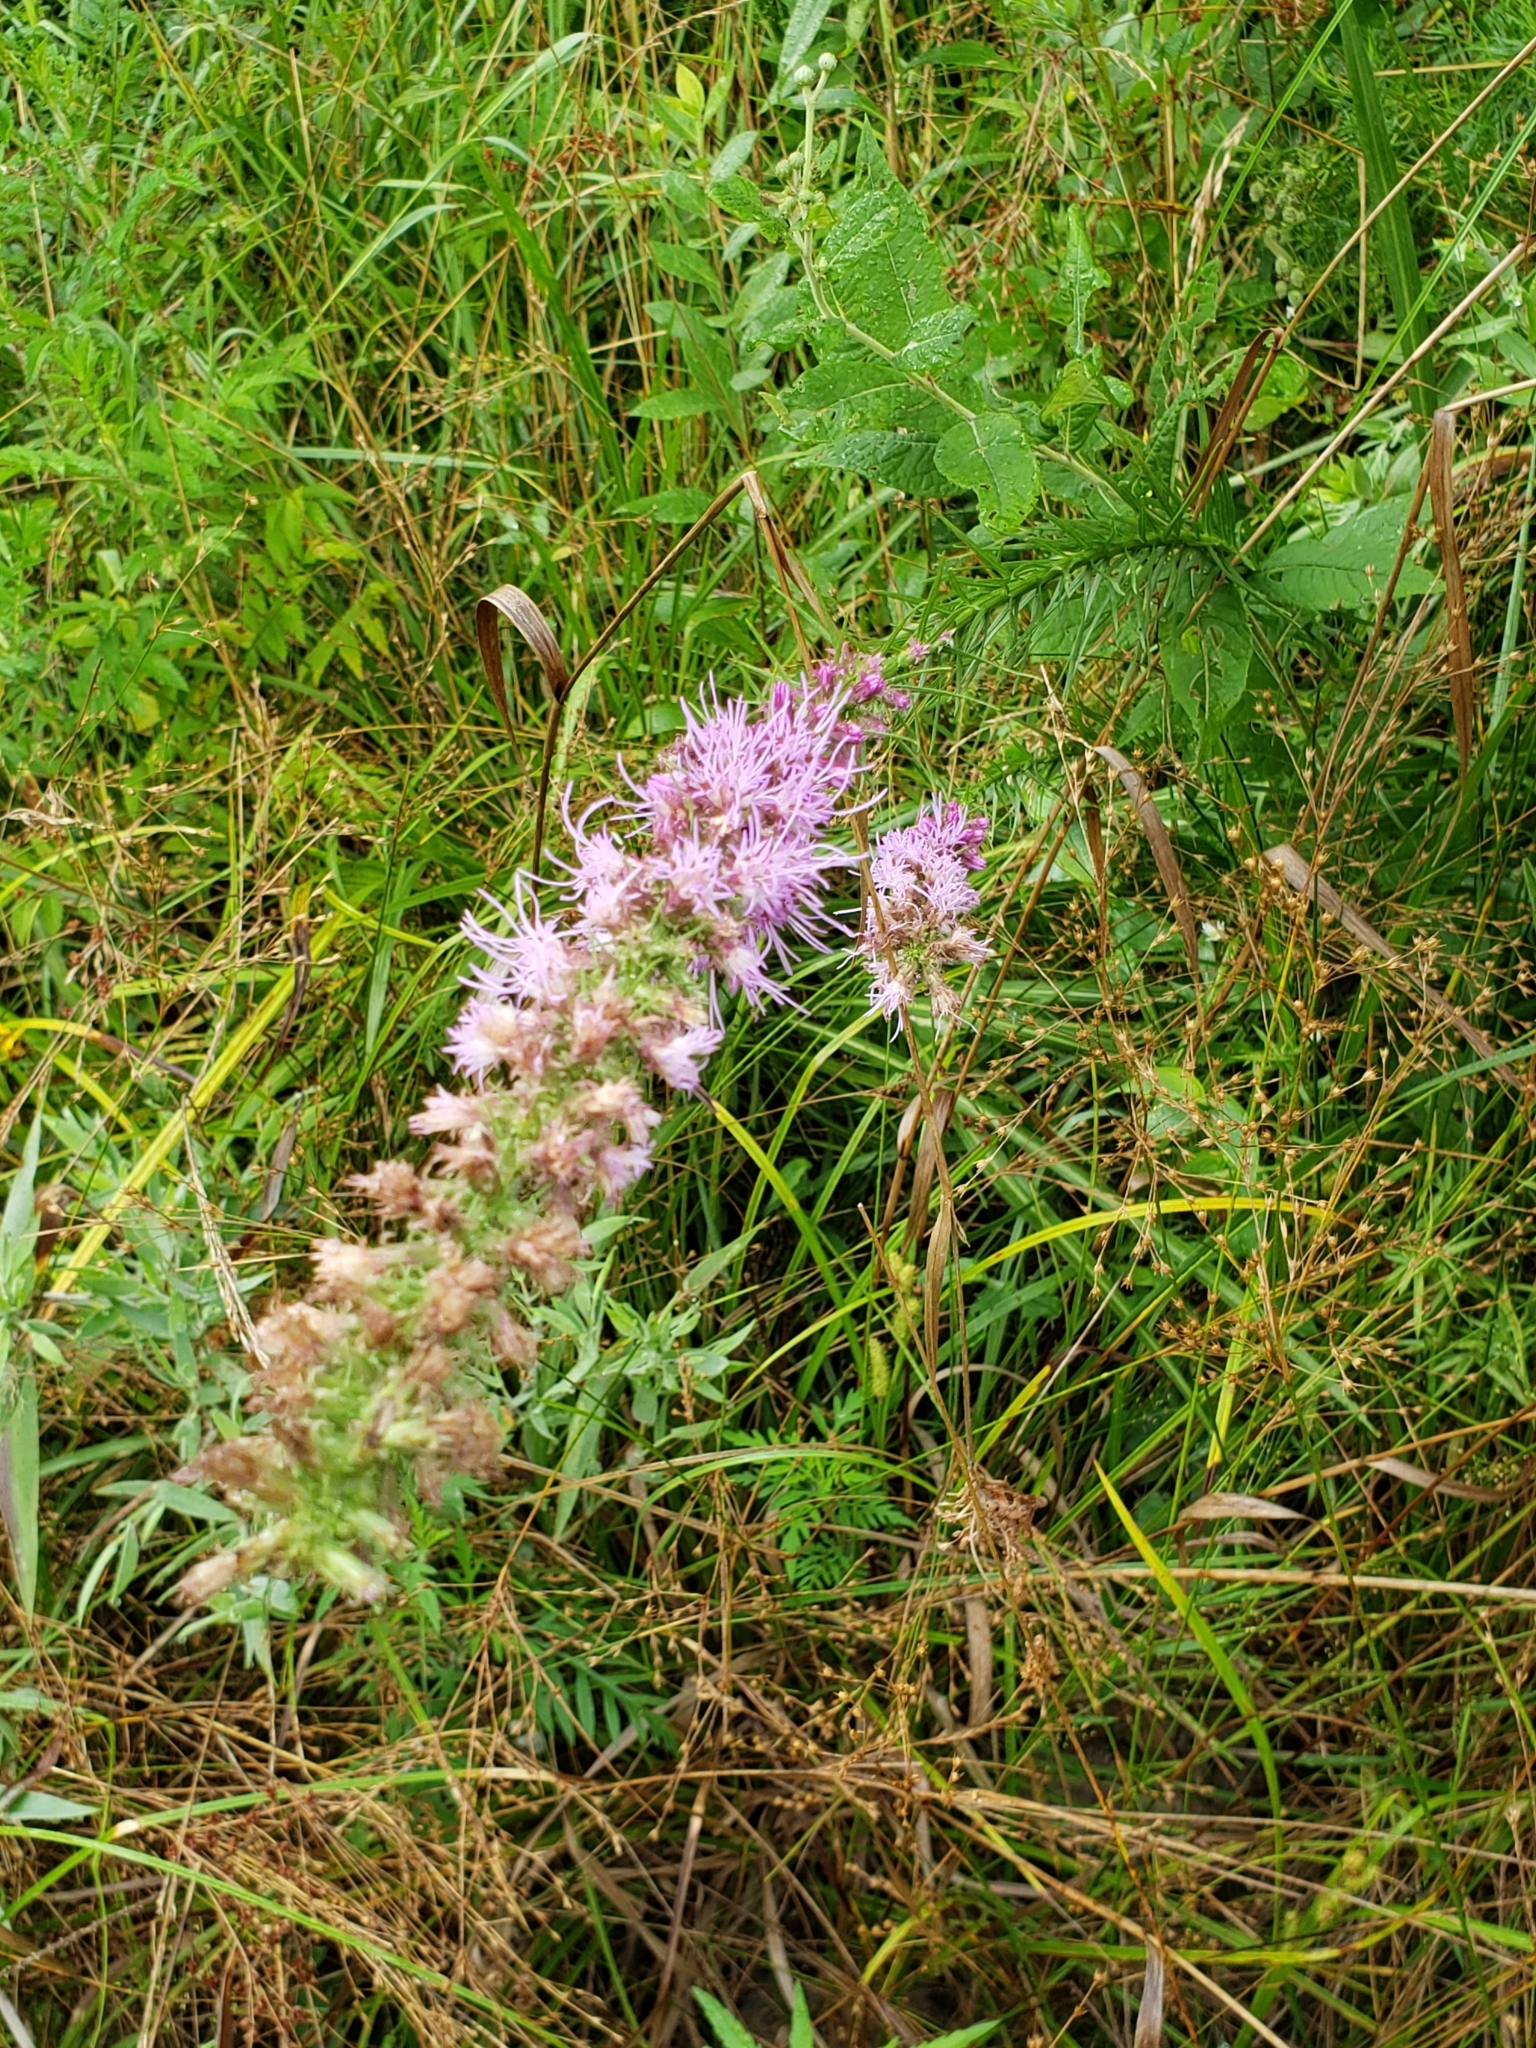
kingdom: Plantae
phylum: Tracheophyta
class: Magnoliopsida
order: Asterales
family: Asteraceae
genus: Liatris
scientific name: Liatris pycnostachya
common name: Cattail gayfeather
